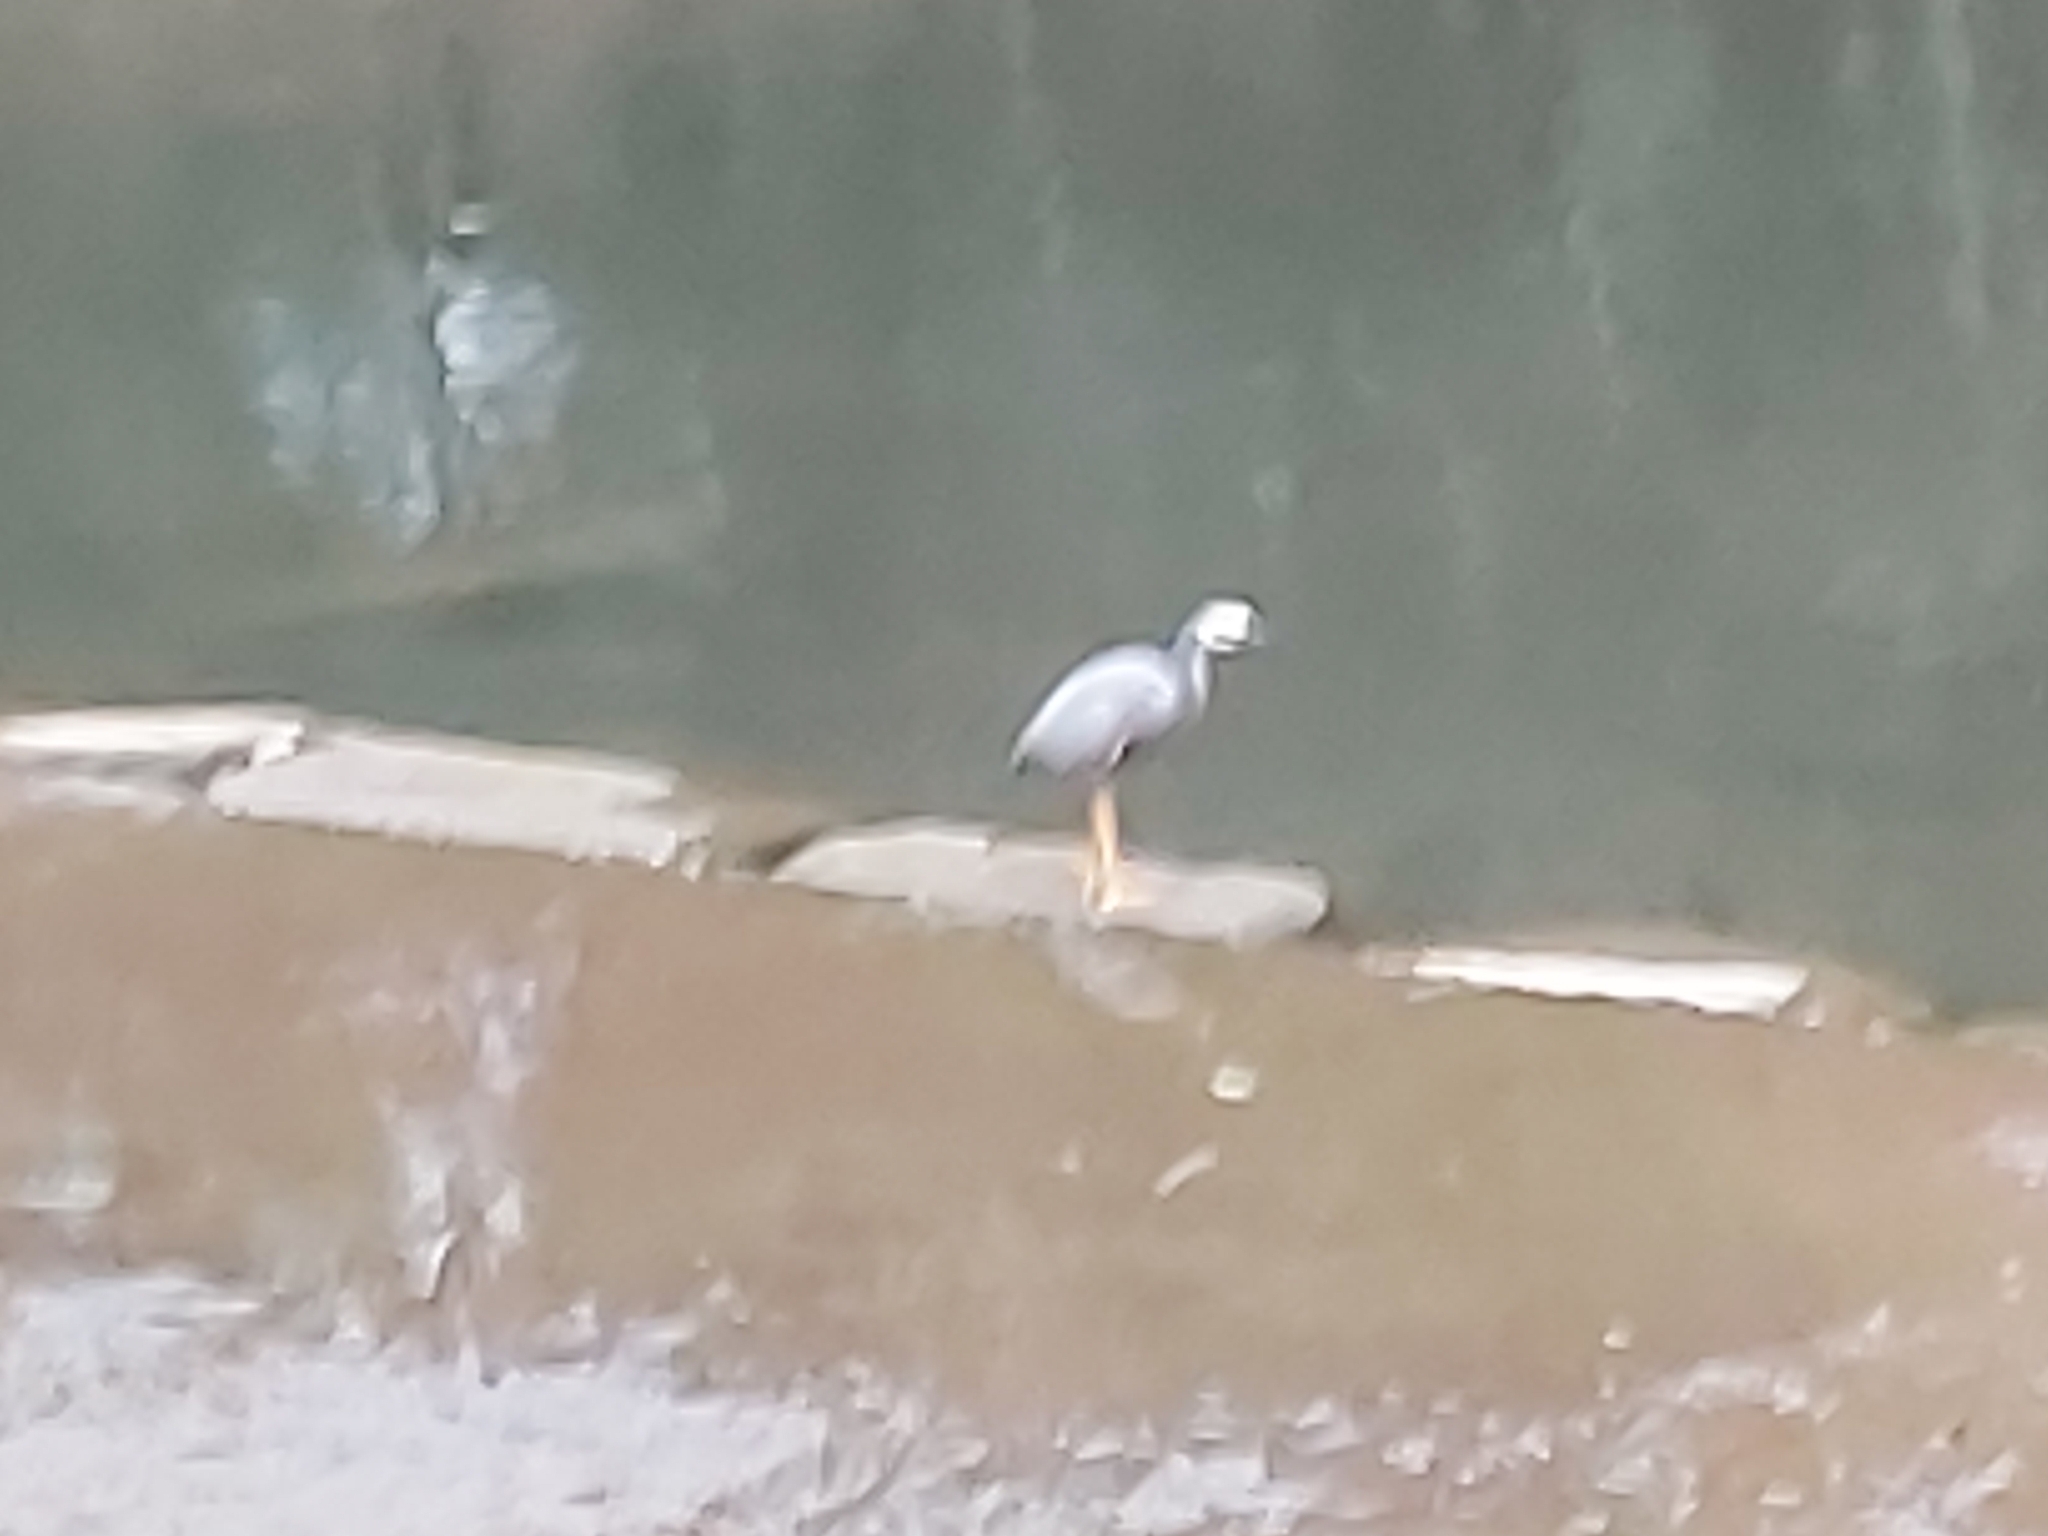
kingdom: Animalia
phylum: Chordata
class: Aves
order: Pelecaniformes
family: Ardeidae
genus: Egretta
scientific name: Egretta novaehollandiae
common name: White-faced heron
